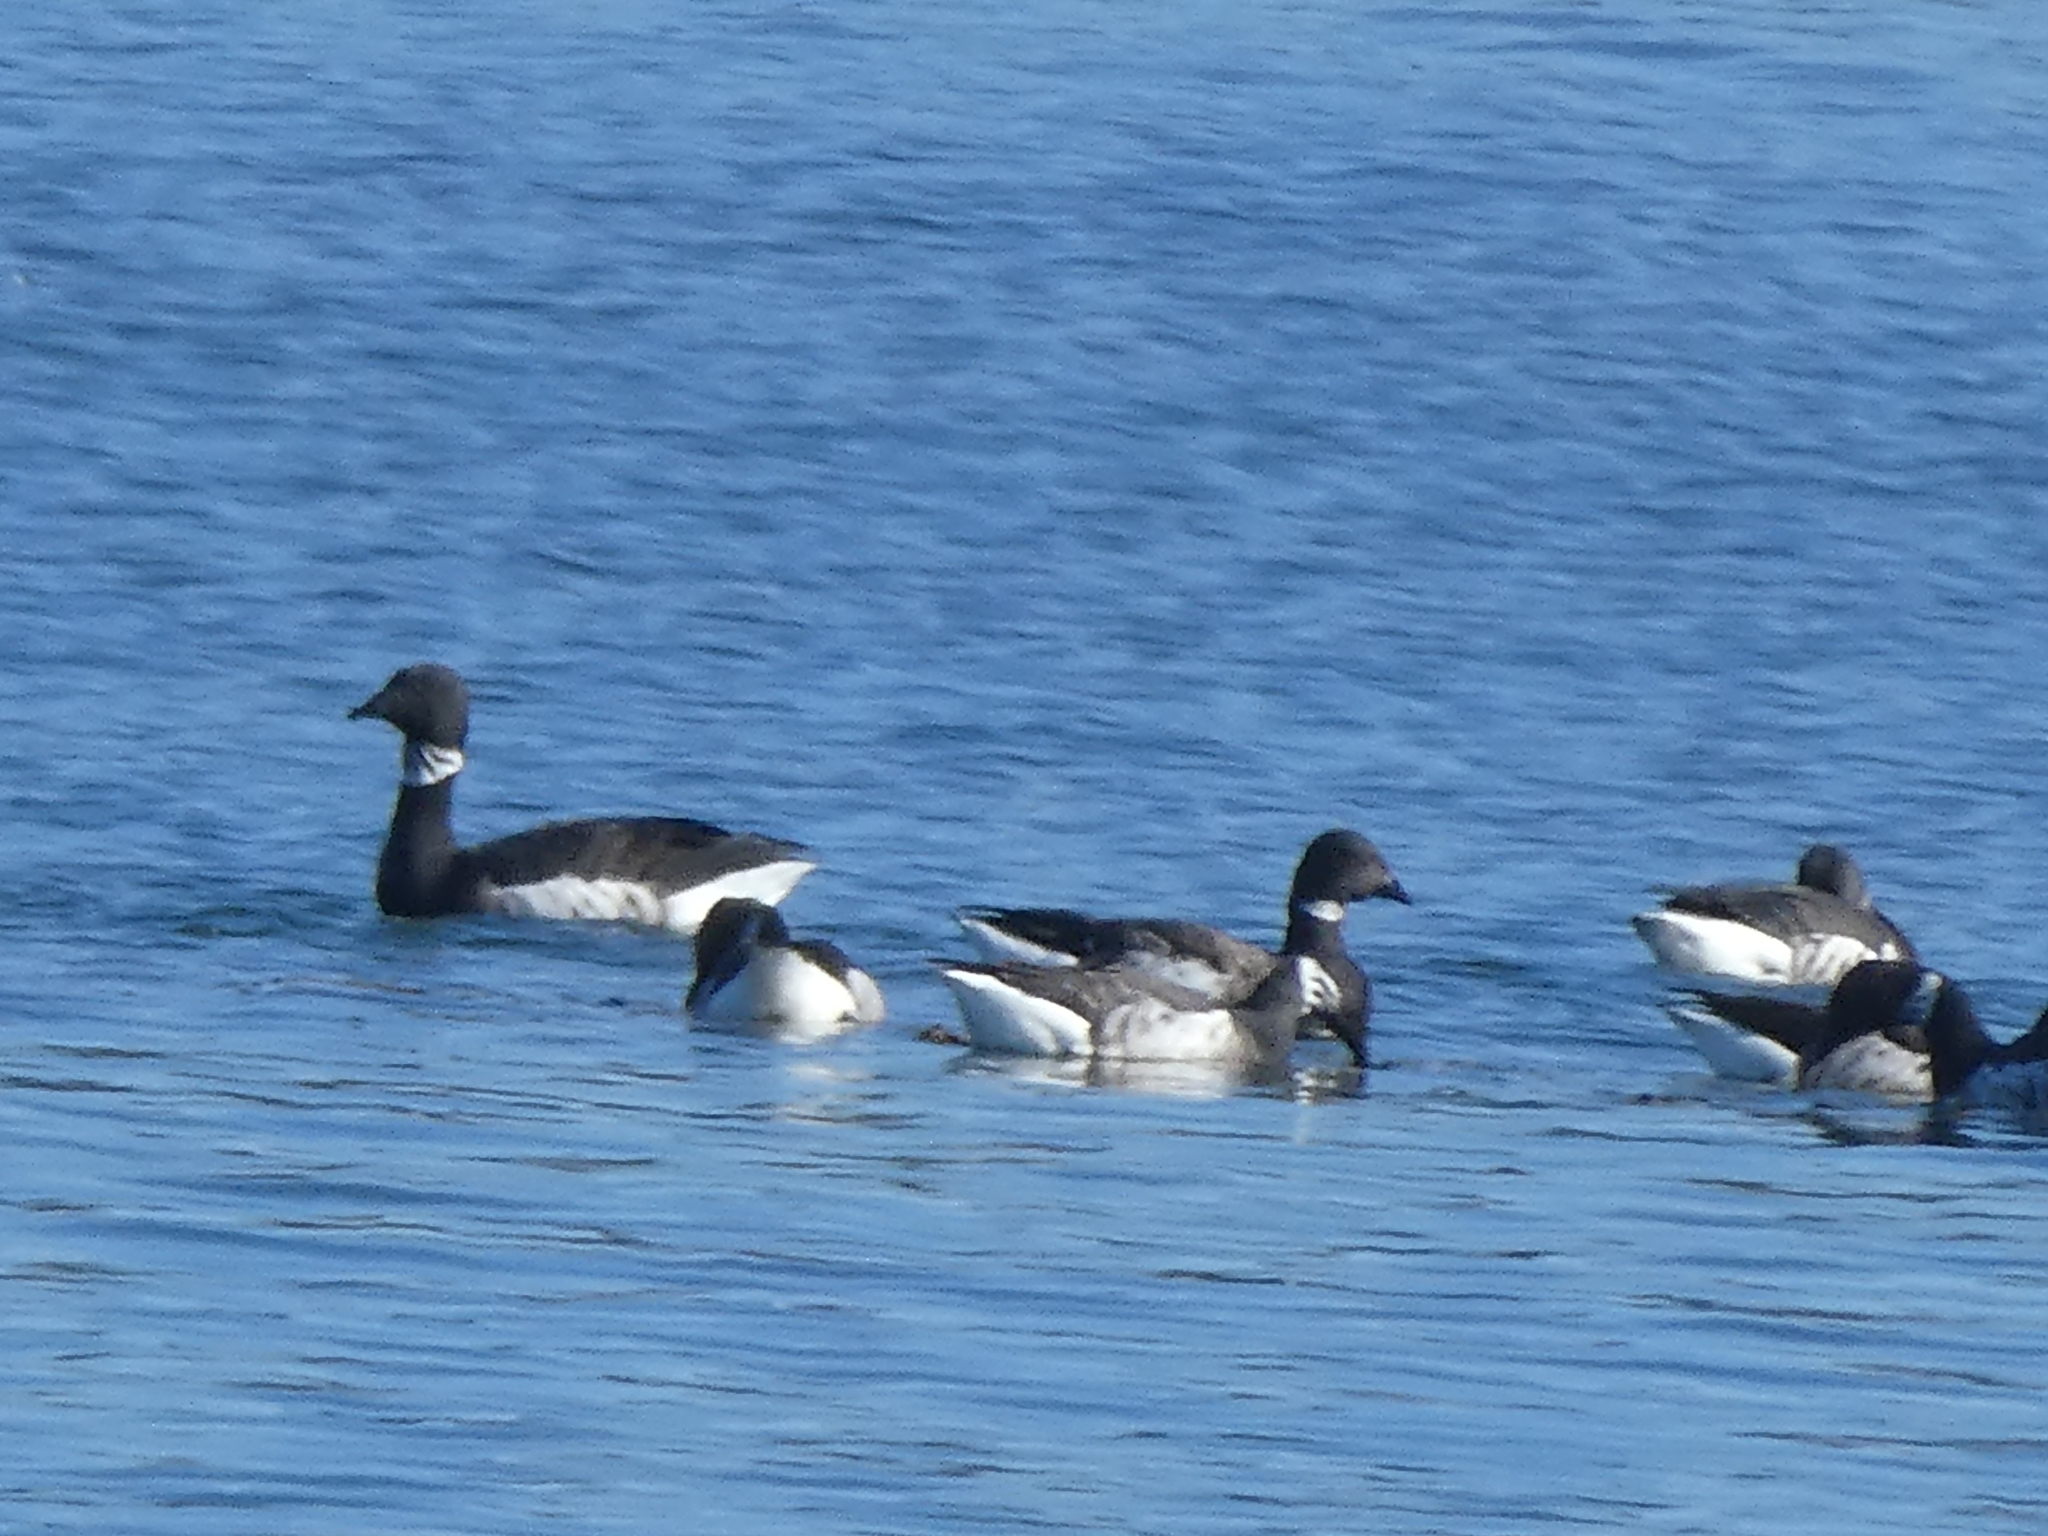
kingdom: Animalia
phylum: Chordata
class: Aves
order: Anseriformes
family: Anatidae
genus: Branta
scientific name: Branta bernicla
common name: Brant goose
